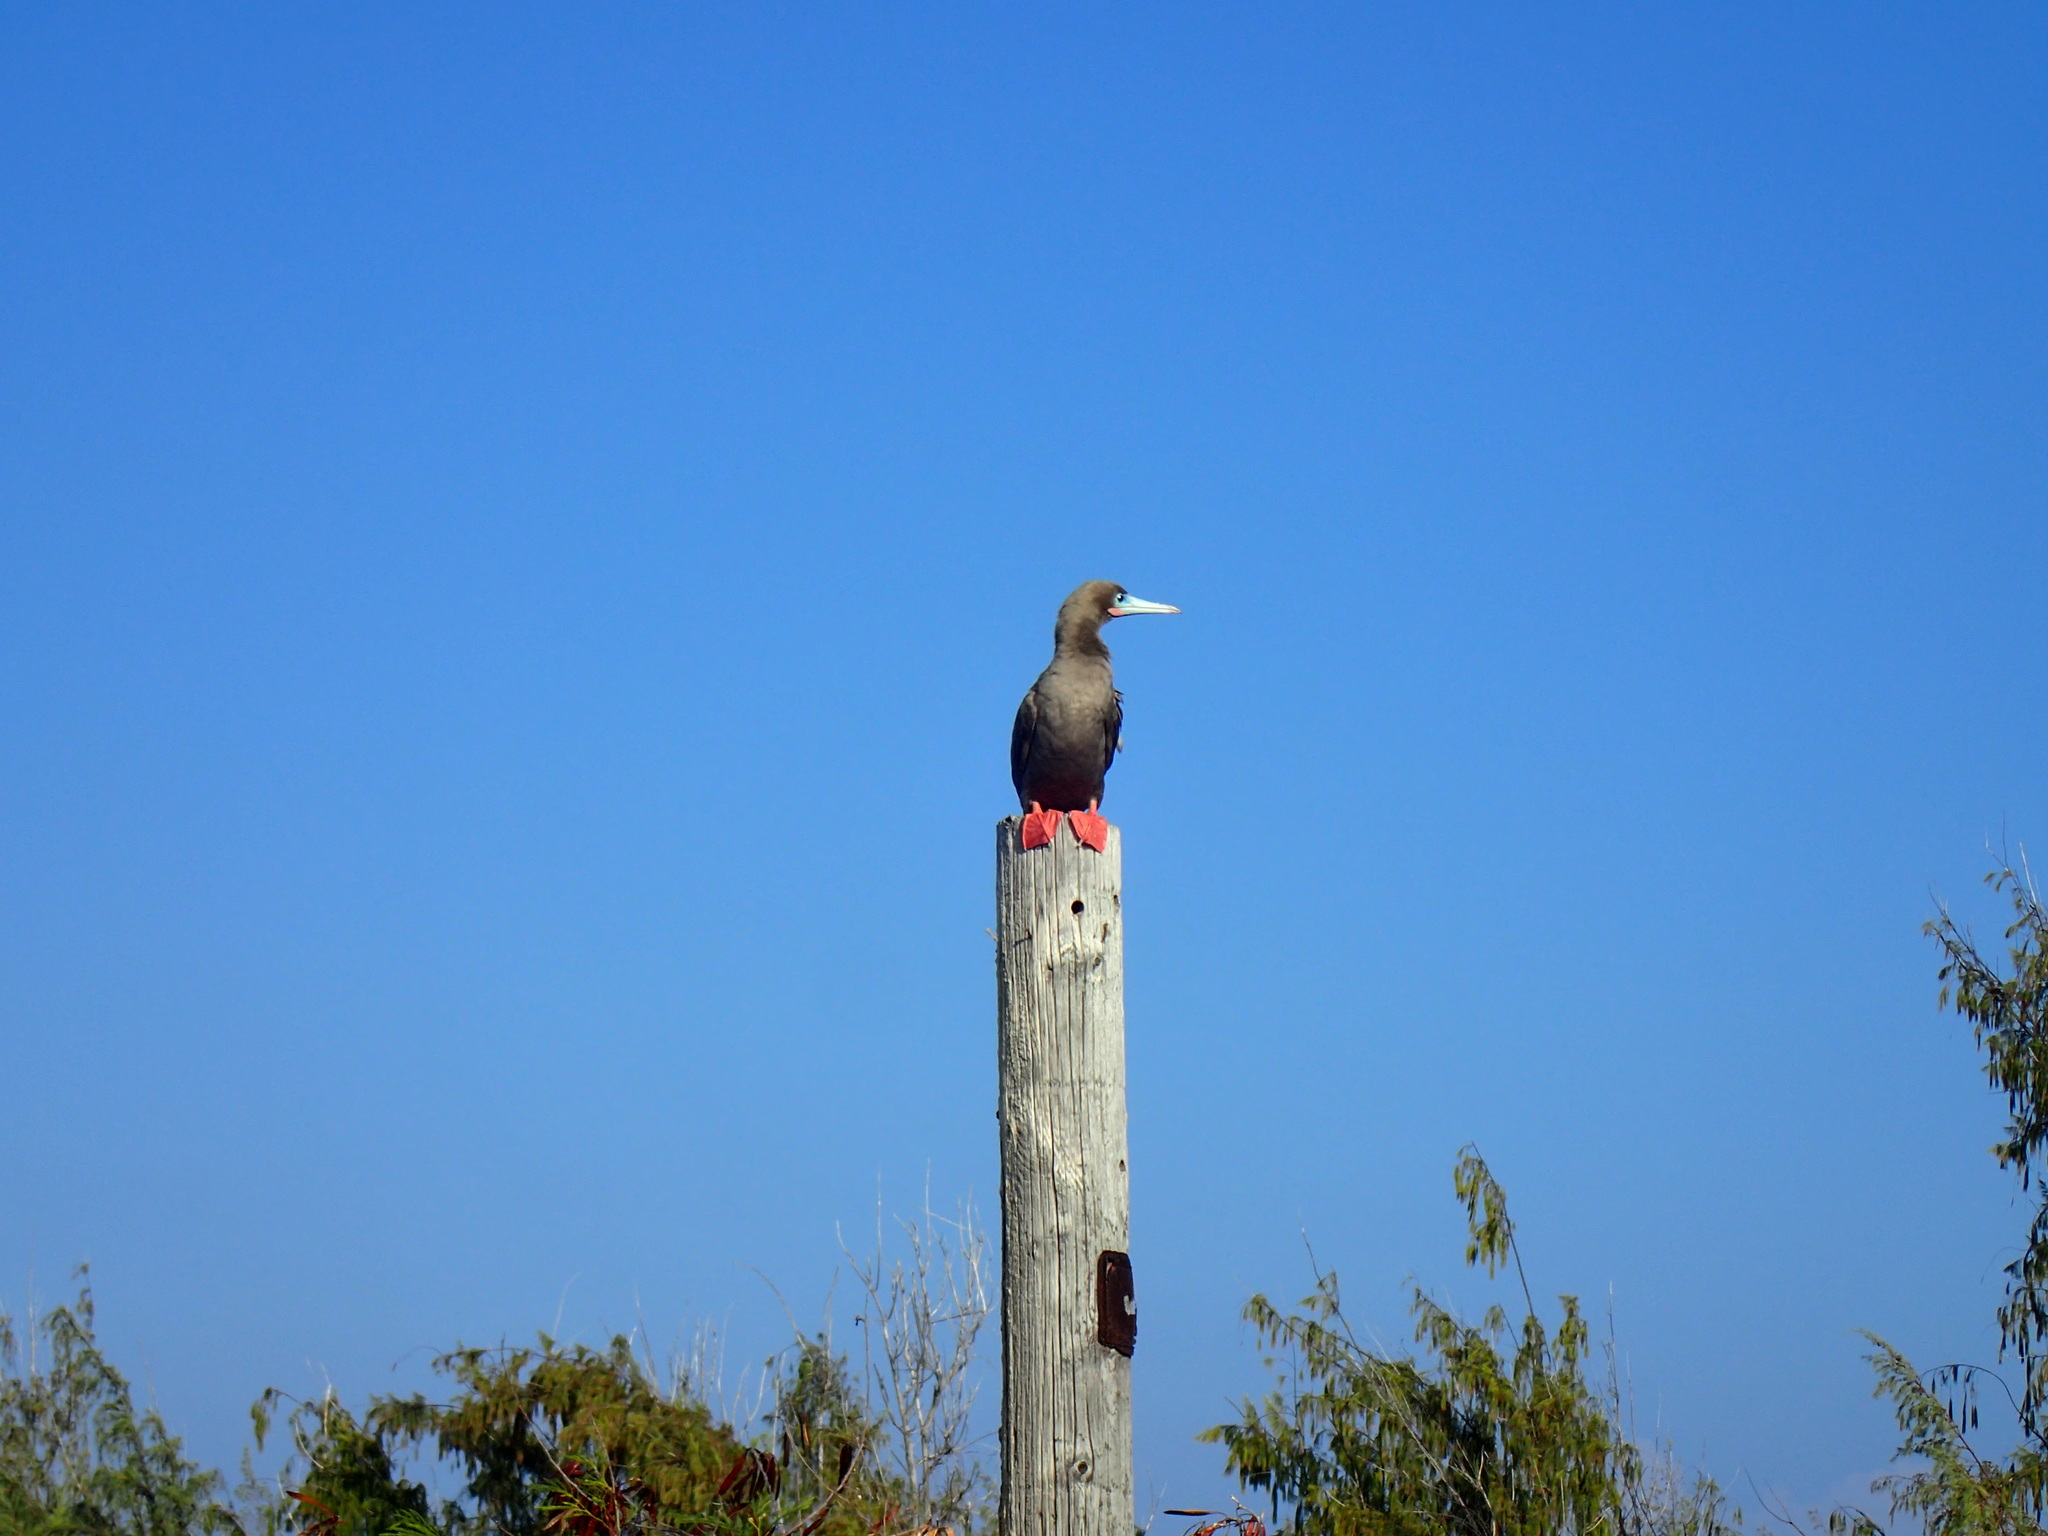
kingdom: Animalia
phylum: Chordata
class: Aves
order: Suliformes
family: Sulidae
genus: Sula
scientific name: Sula sula
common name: Red-footed booby
